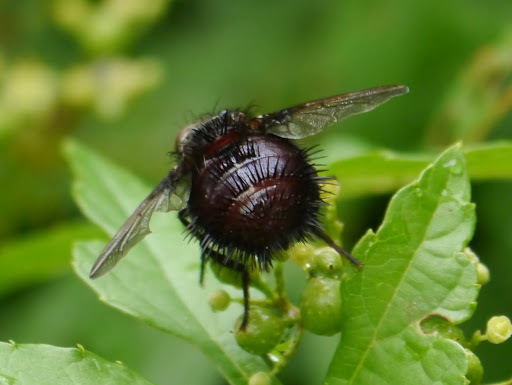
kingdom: Animalia
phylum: Arthropoda
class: Insecta
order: Diptera
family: Tachinidae
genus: Juriniopsis
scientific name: Juriniopsis adusta
